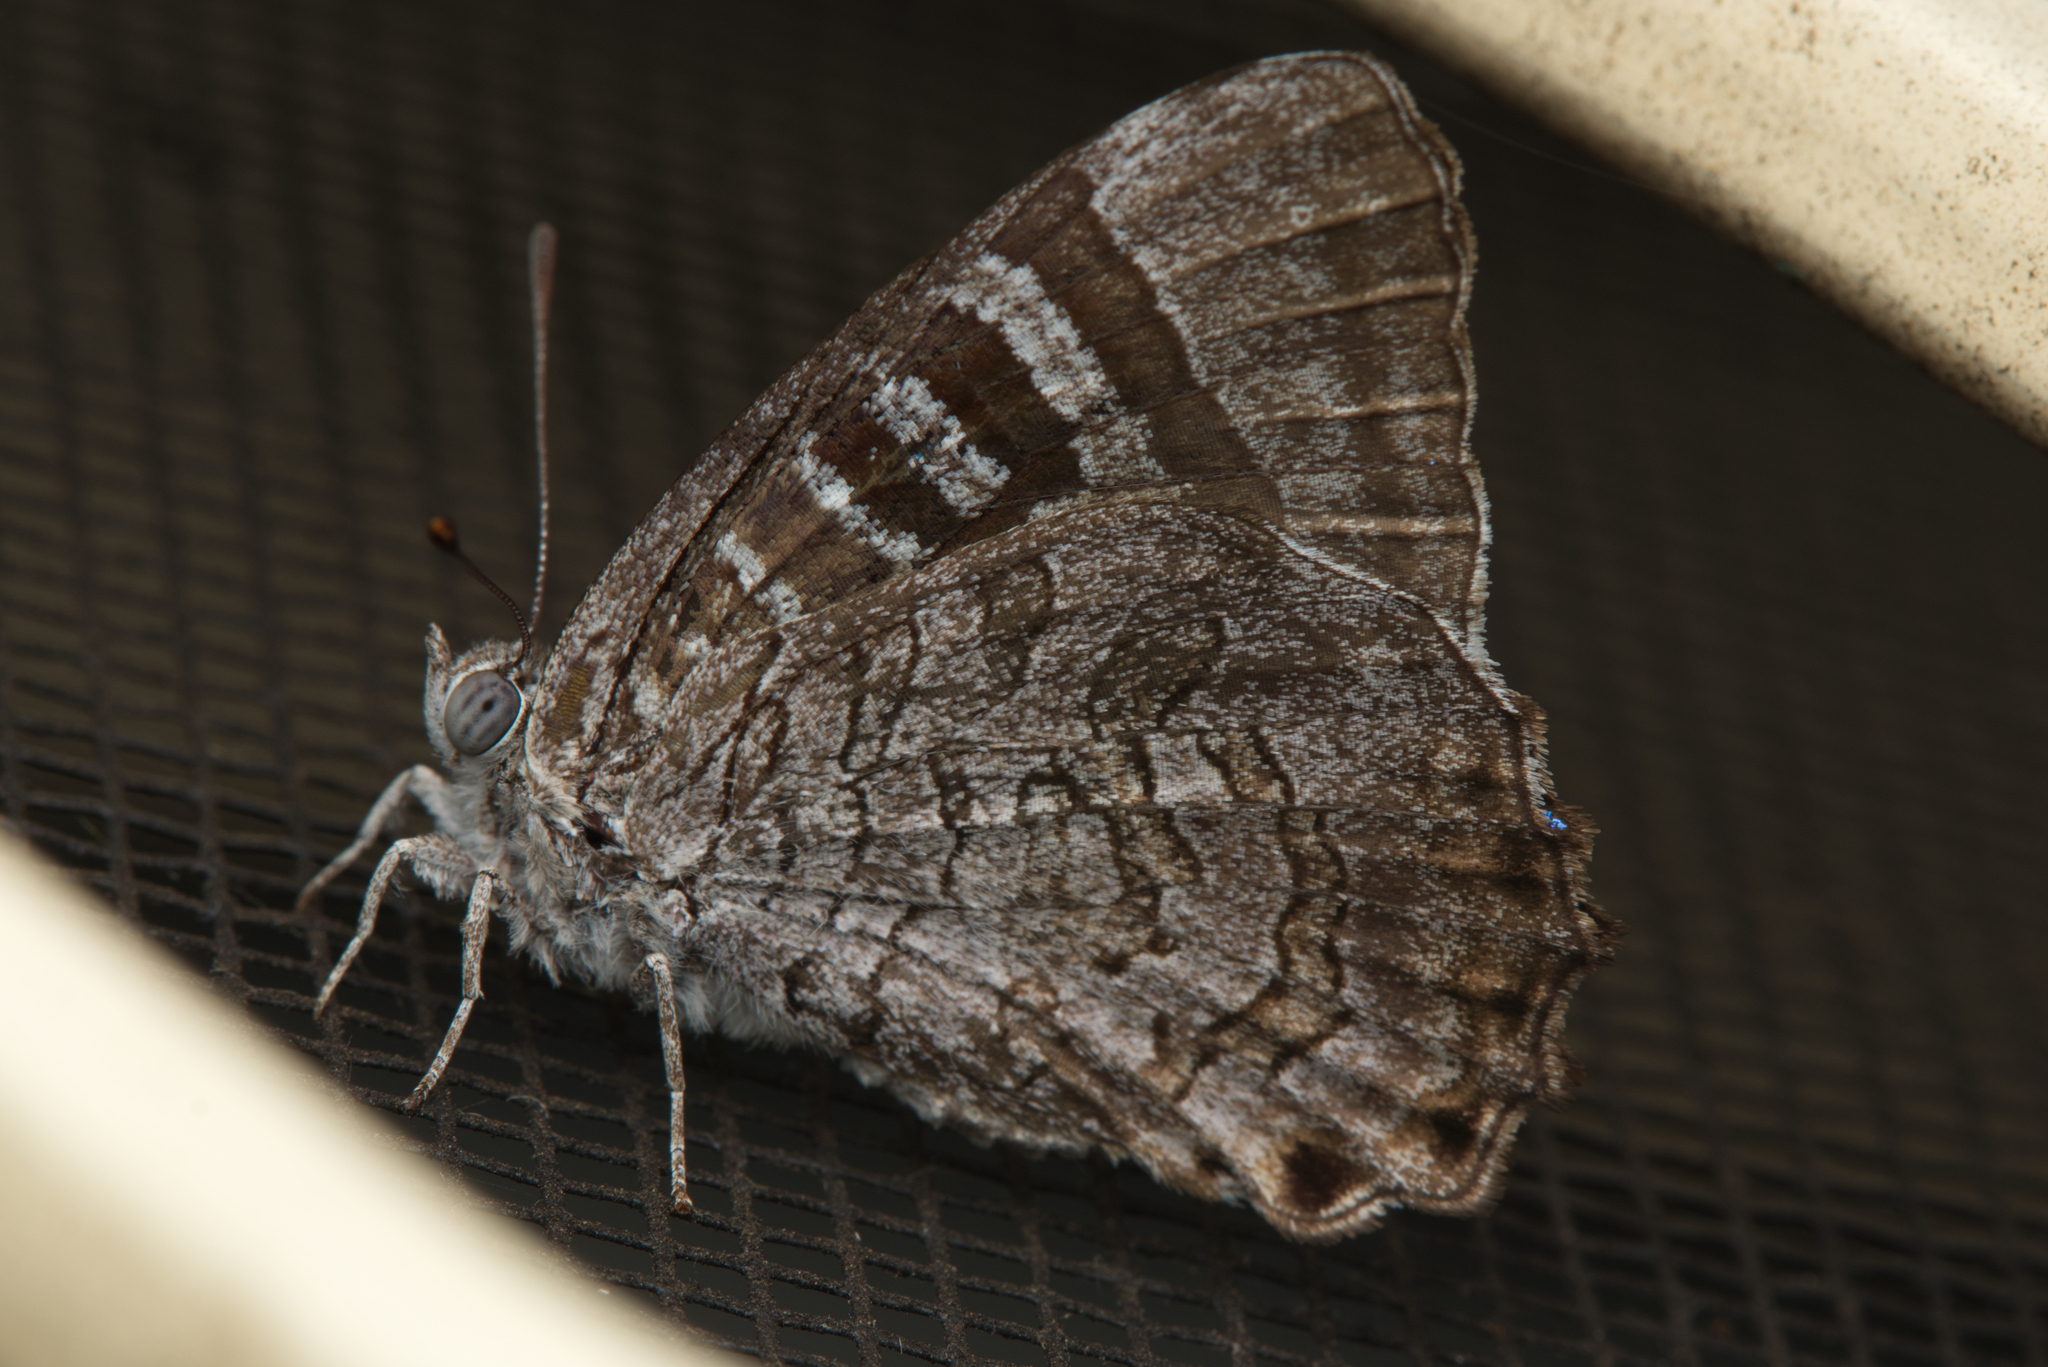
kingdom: Animalia
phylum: Arthropoda
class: Insecta
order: Lepidoptera
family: Lycaenidae
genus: Ogyris
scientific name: Ogyris oroetes
